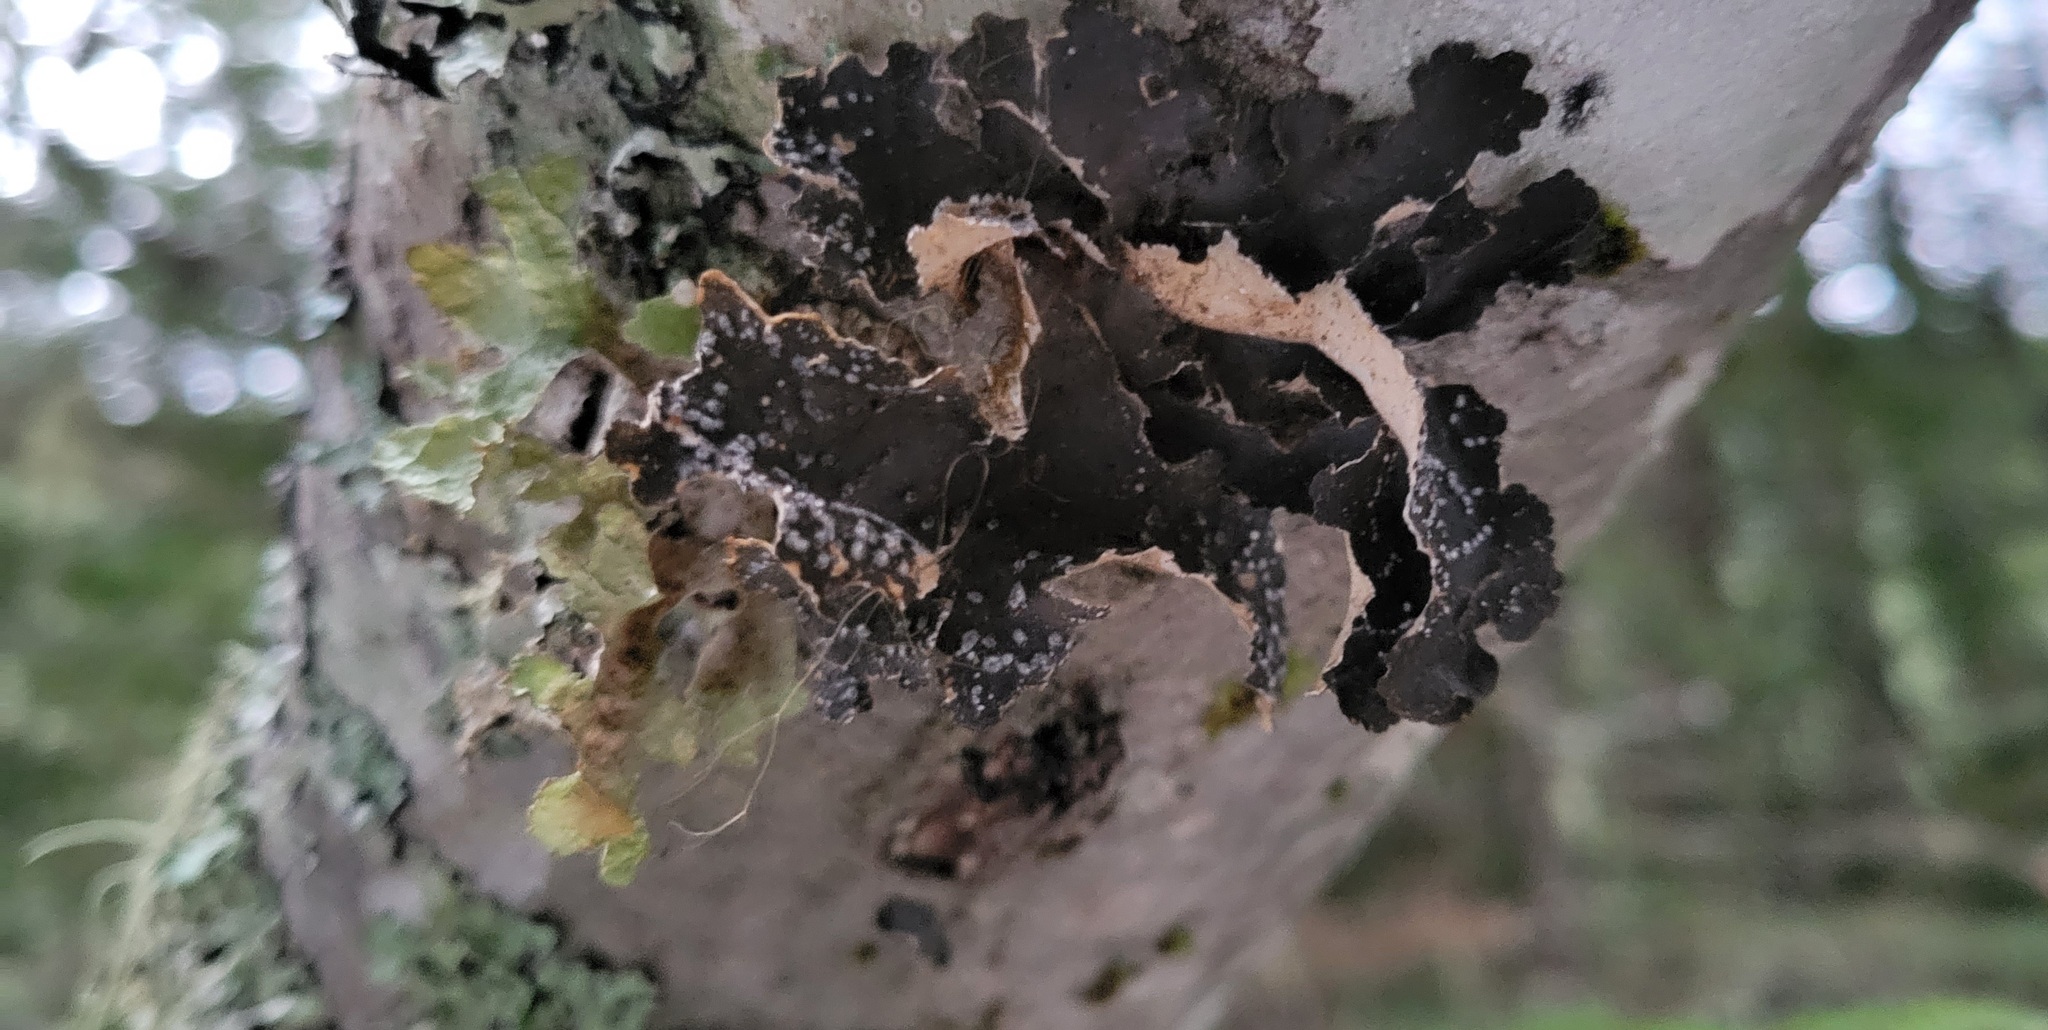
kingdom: Fungi
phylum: Ascomycota
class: Lecanoromycetes
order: Peltigerales
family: Lobariaceae
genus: Lobaria
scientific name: Lobaria anomala
